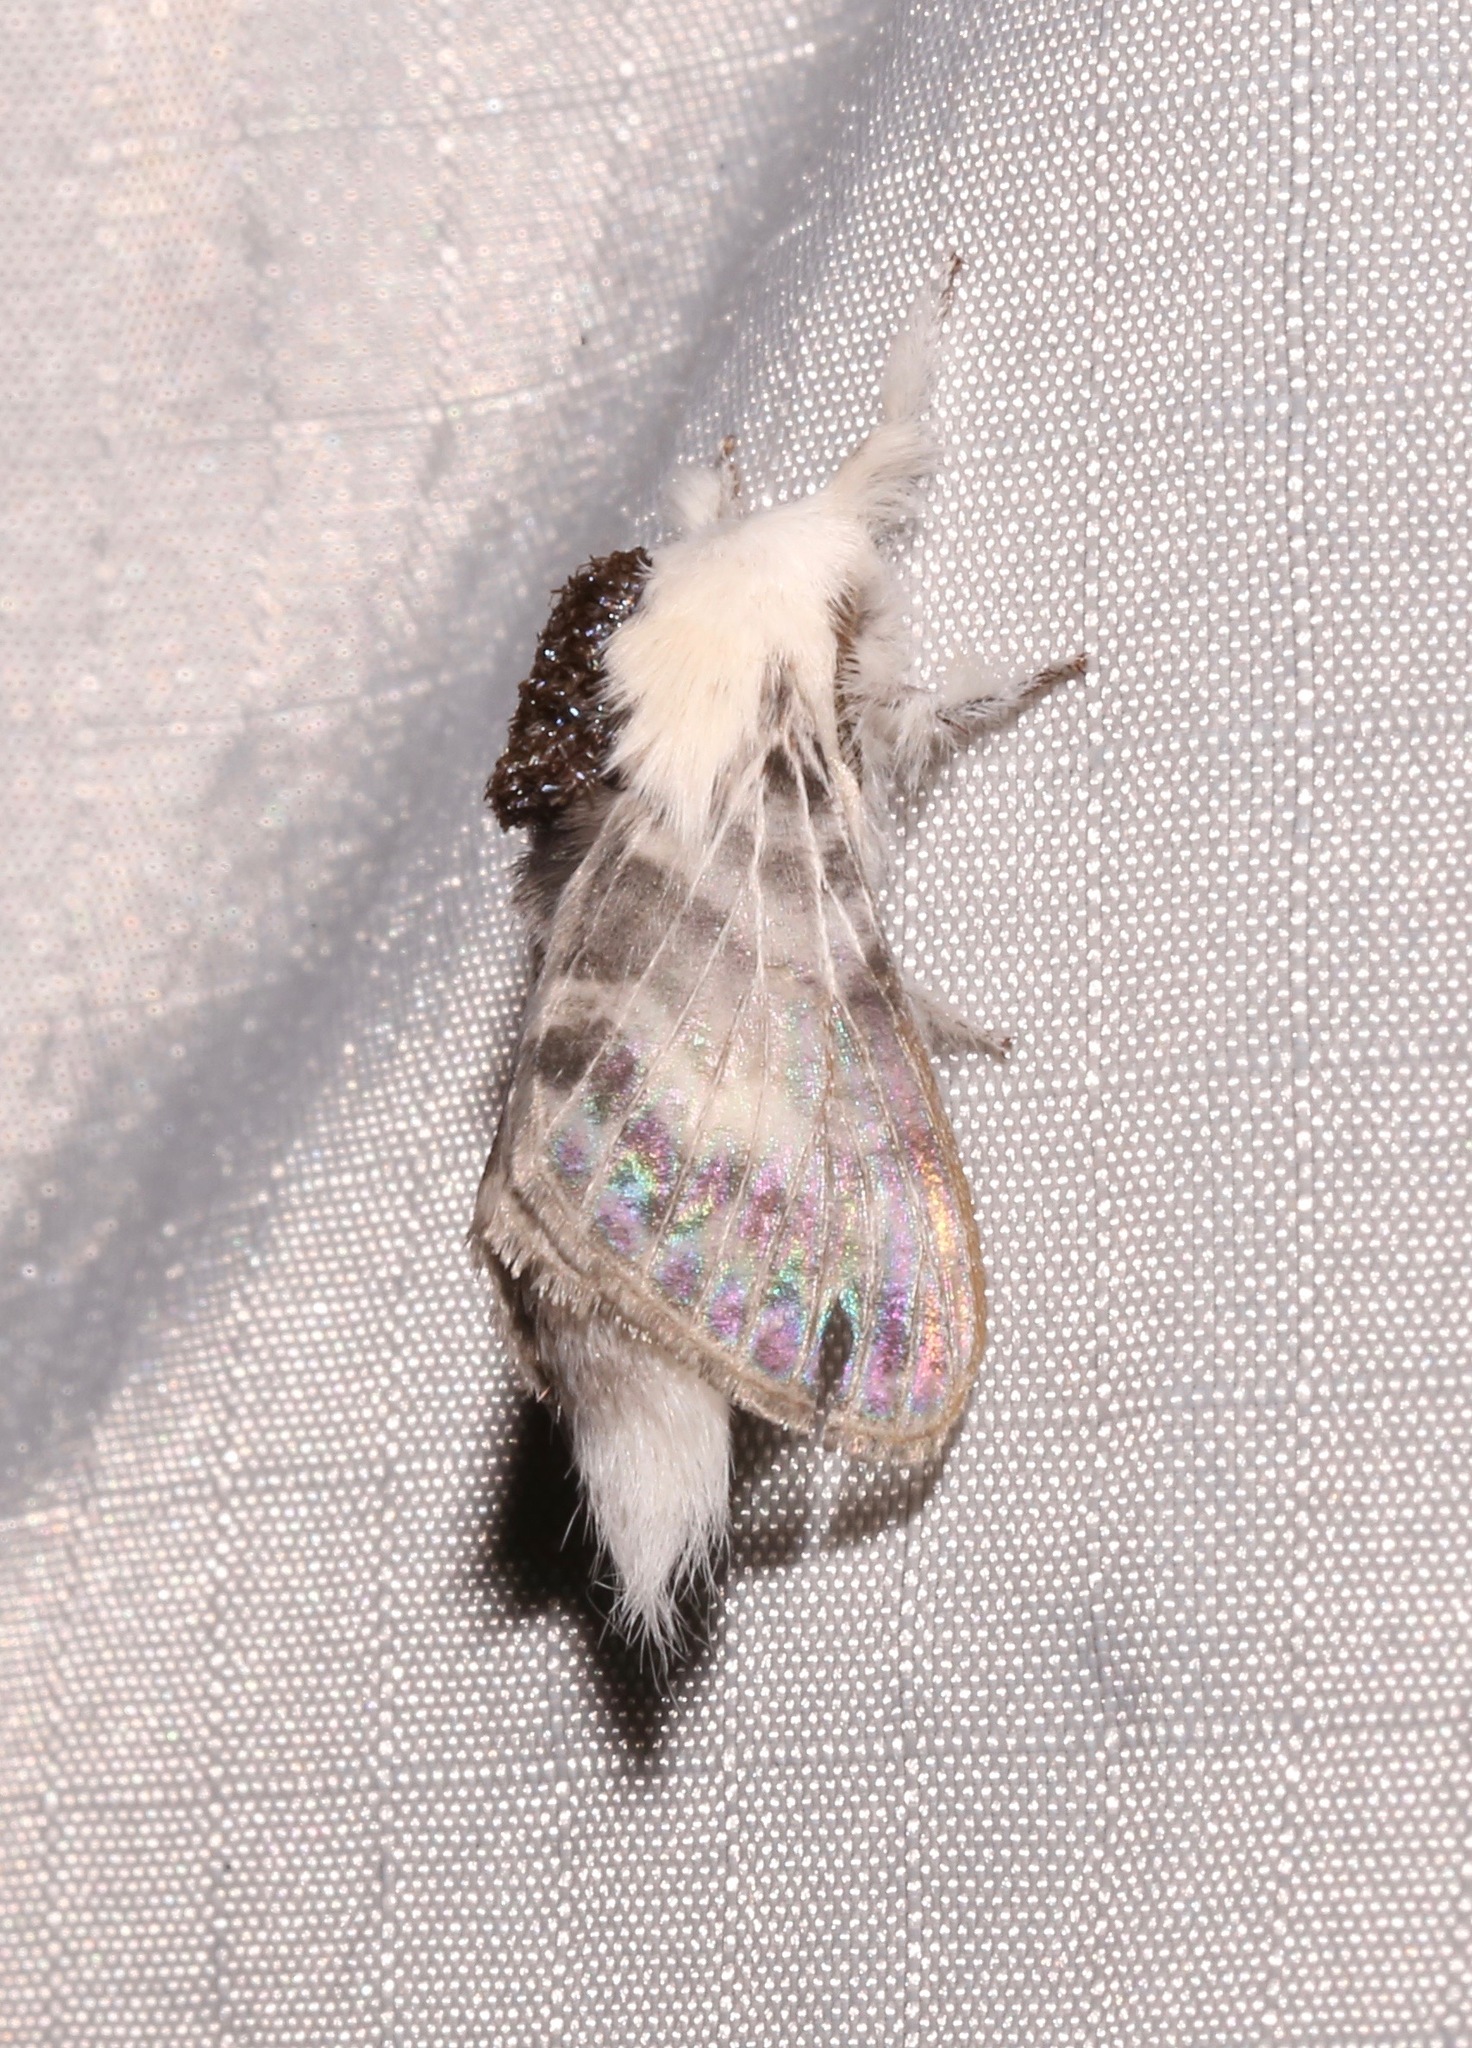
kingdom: Animalia
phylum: Arthropoda
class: Insecta
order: Lepidoptera
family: Lasiocampidae
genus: Tolype
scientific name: Tolype notialis
